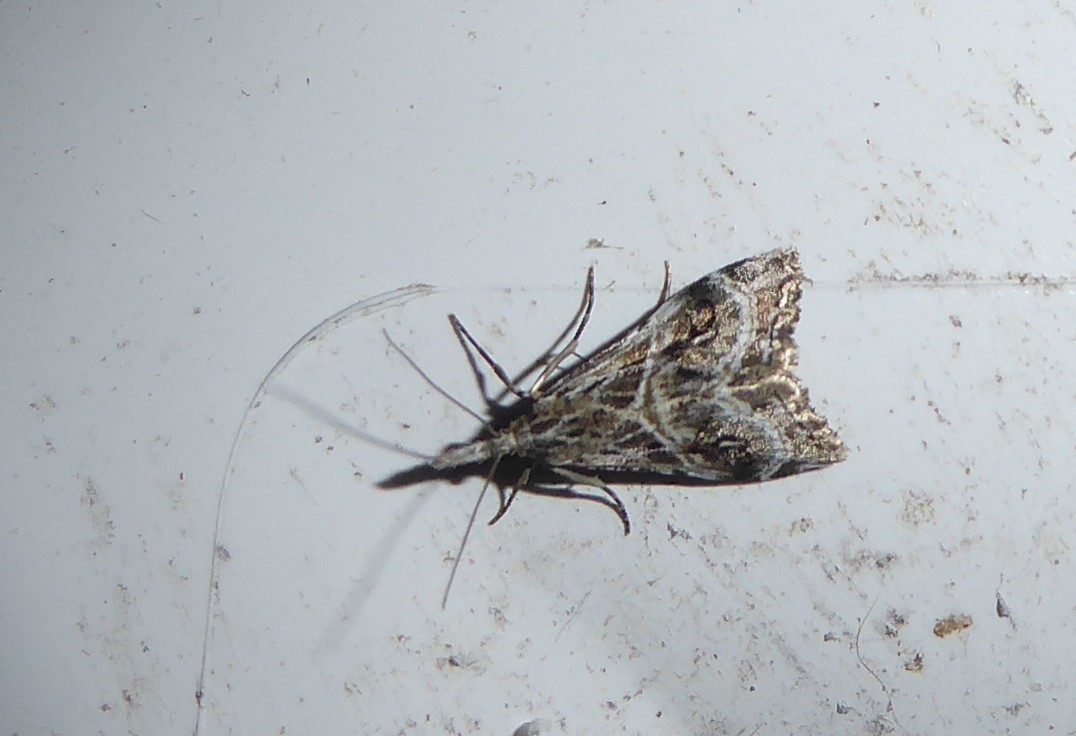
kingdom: Animalia
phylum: Arthropoda
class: Insecta
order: Lepidoptera
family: Crambidae
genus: Gadira
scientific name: Gadira acerella
